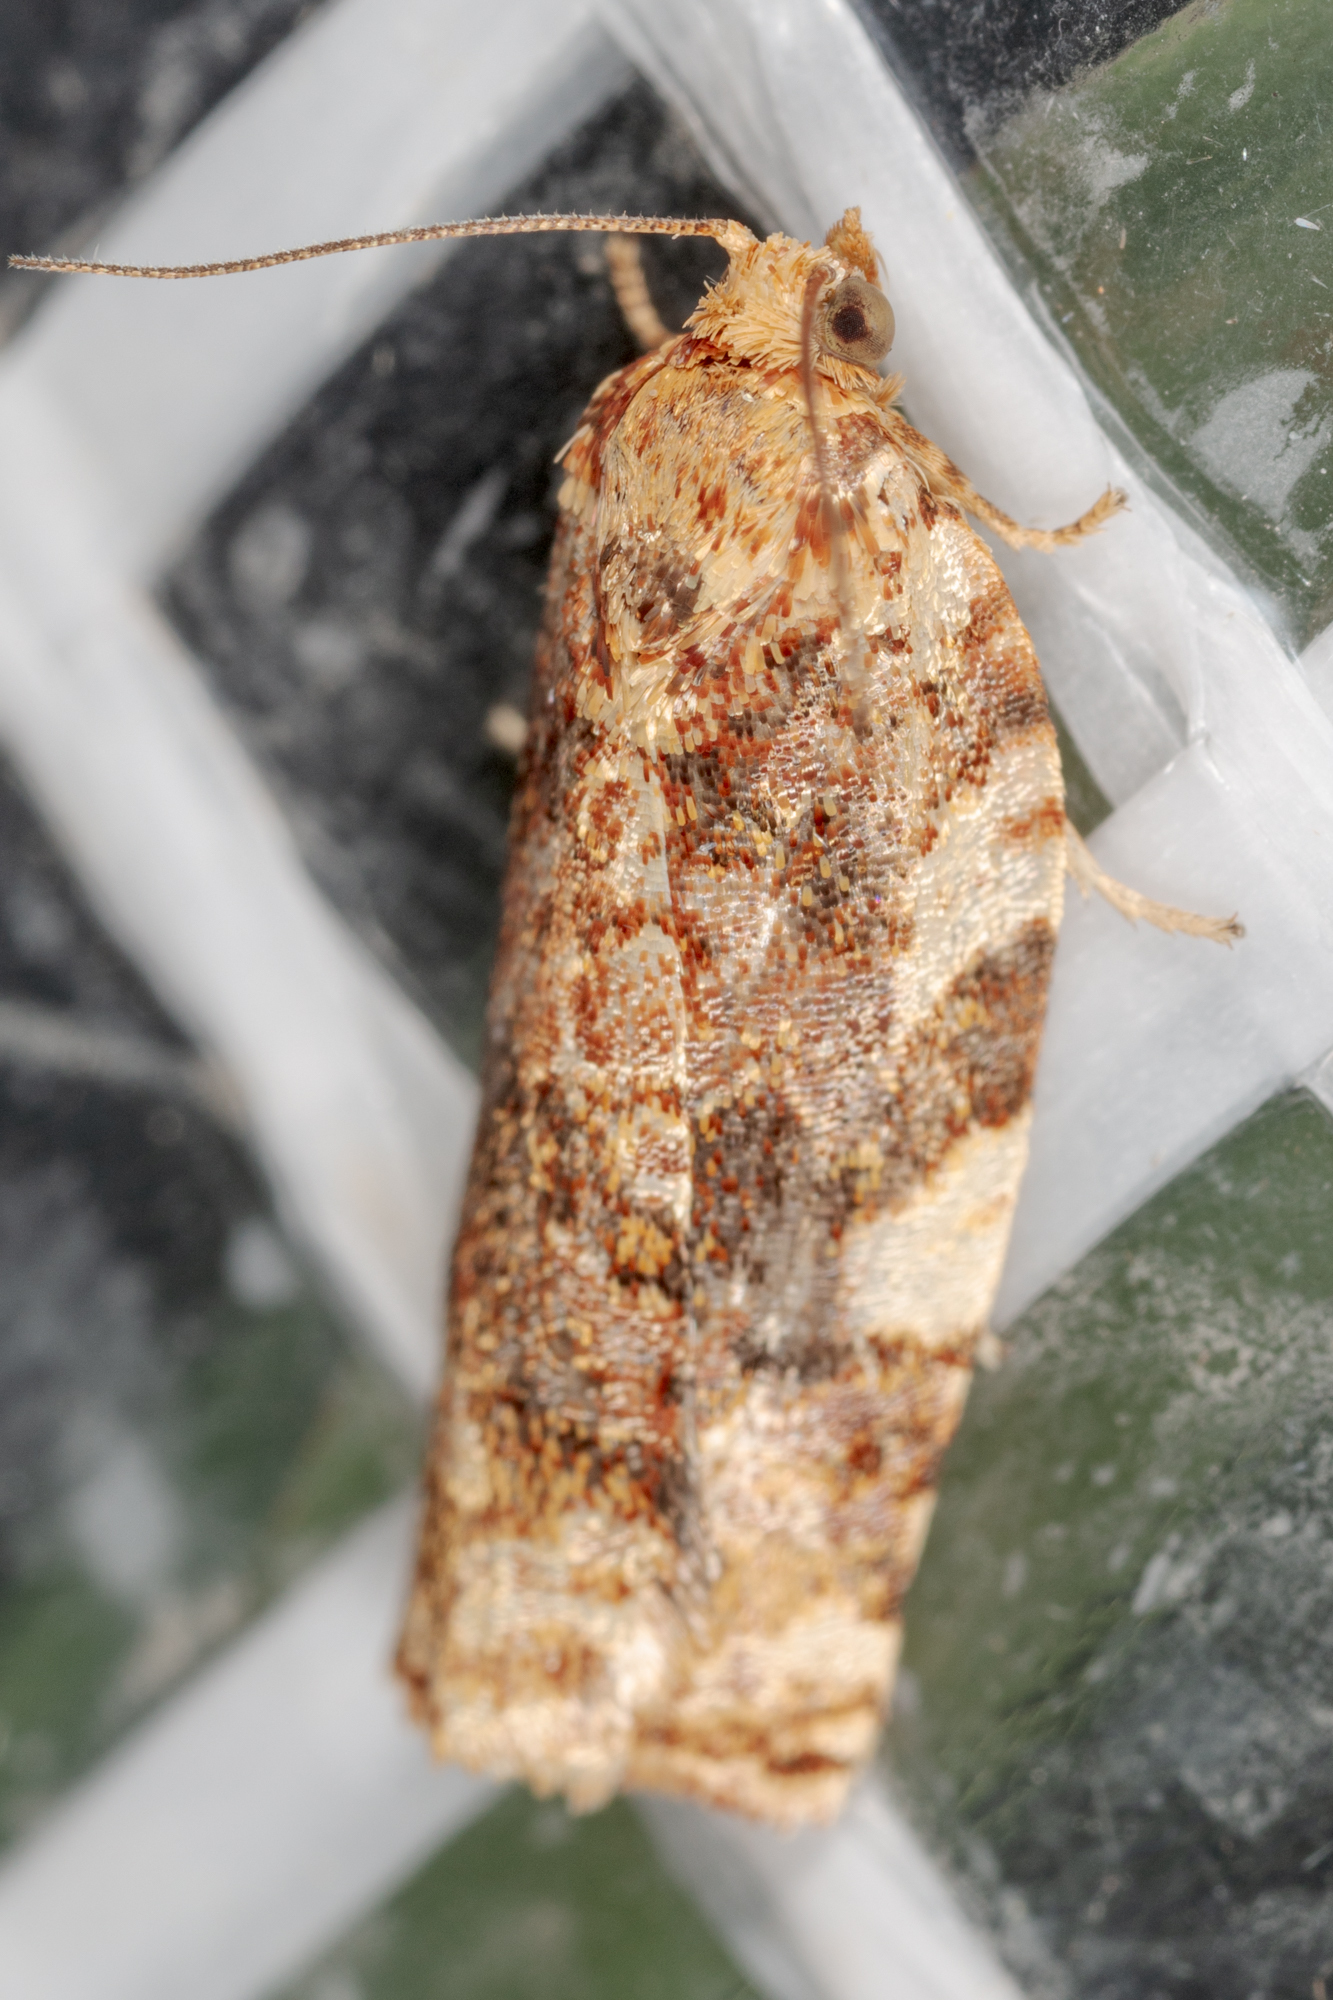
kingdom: Animalia
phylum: Arthropoda
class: Insecta
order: Lepidoptera
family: Tortricidae
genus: Archips
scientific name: Archips argyrospila
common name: Fruit-tree leafroller moth
